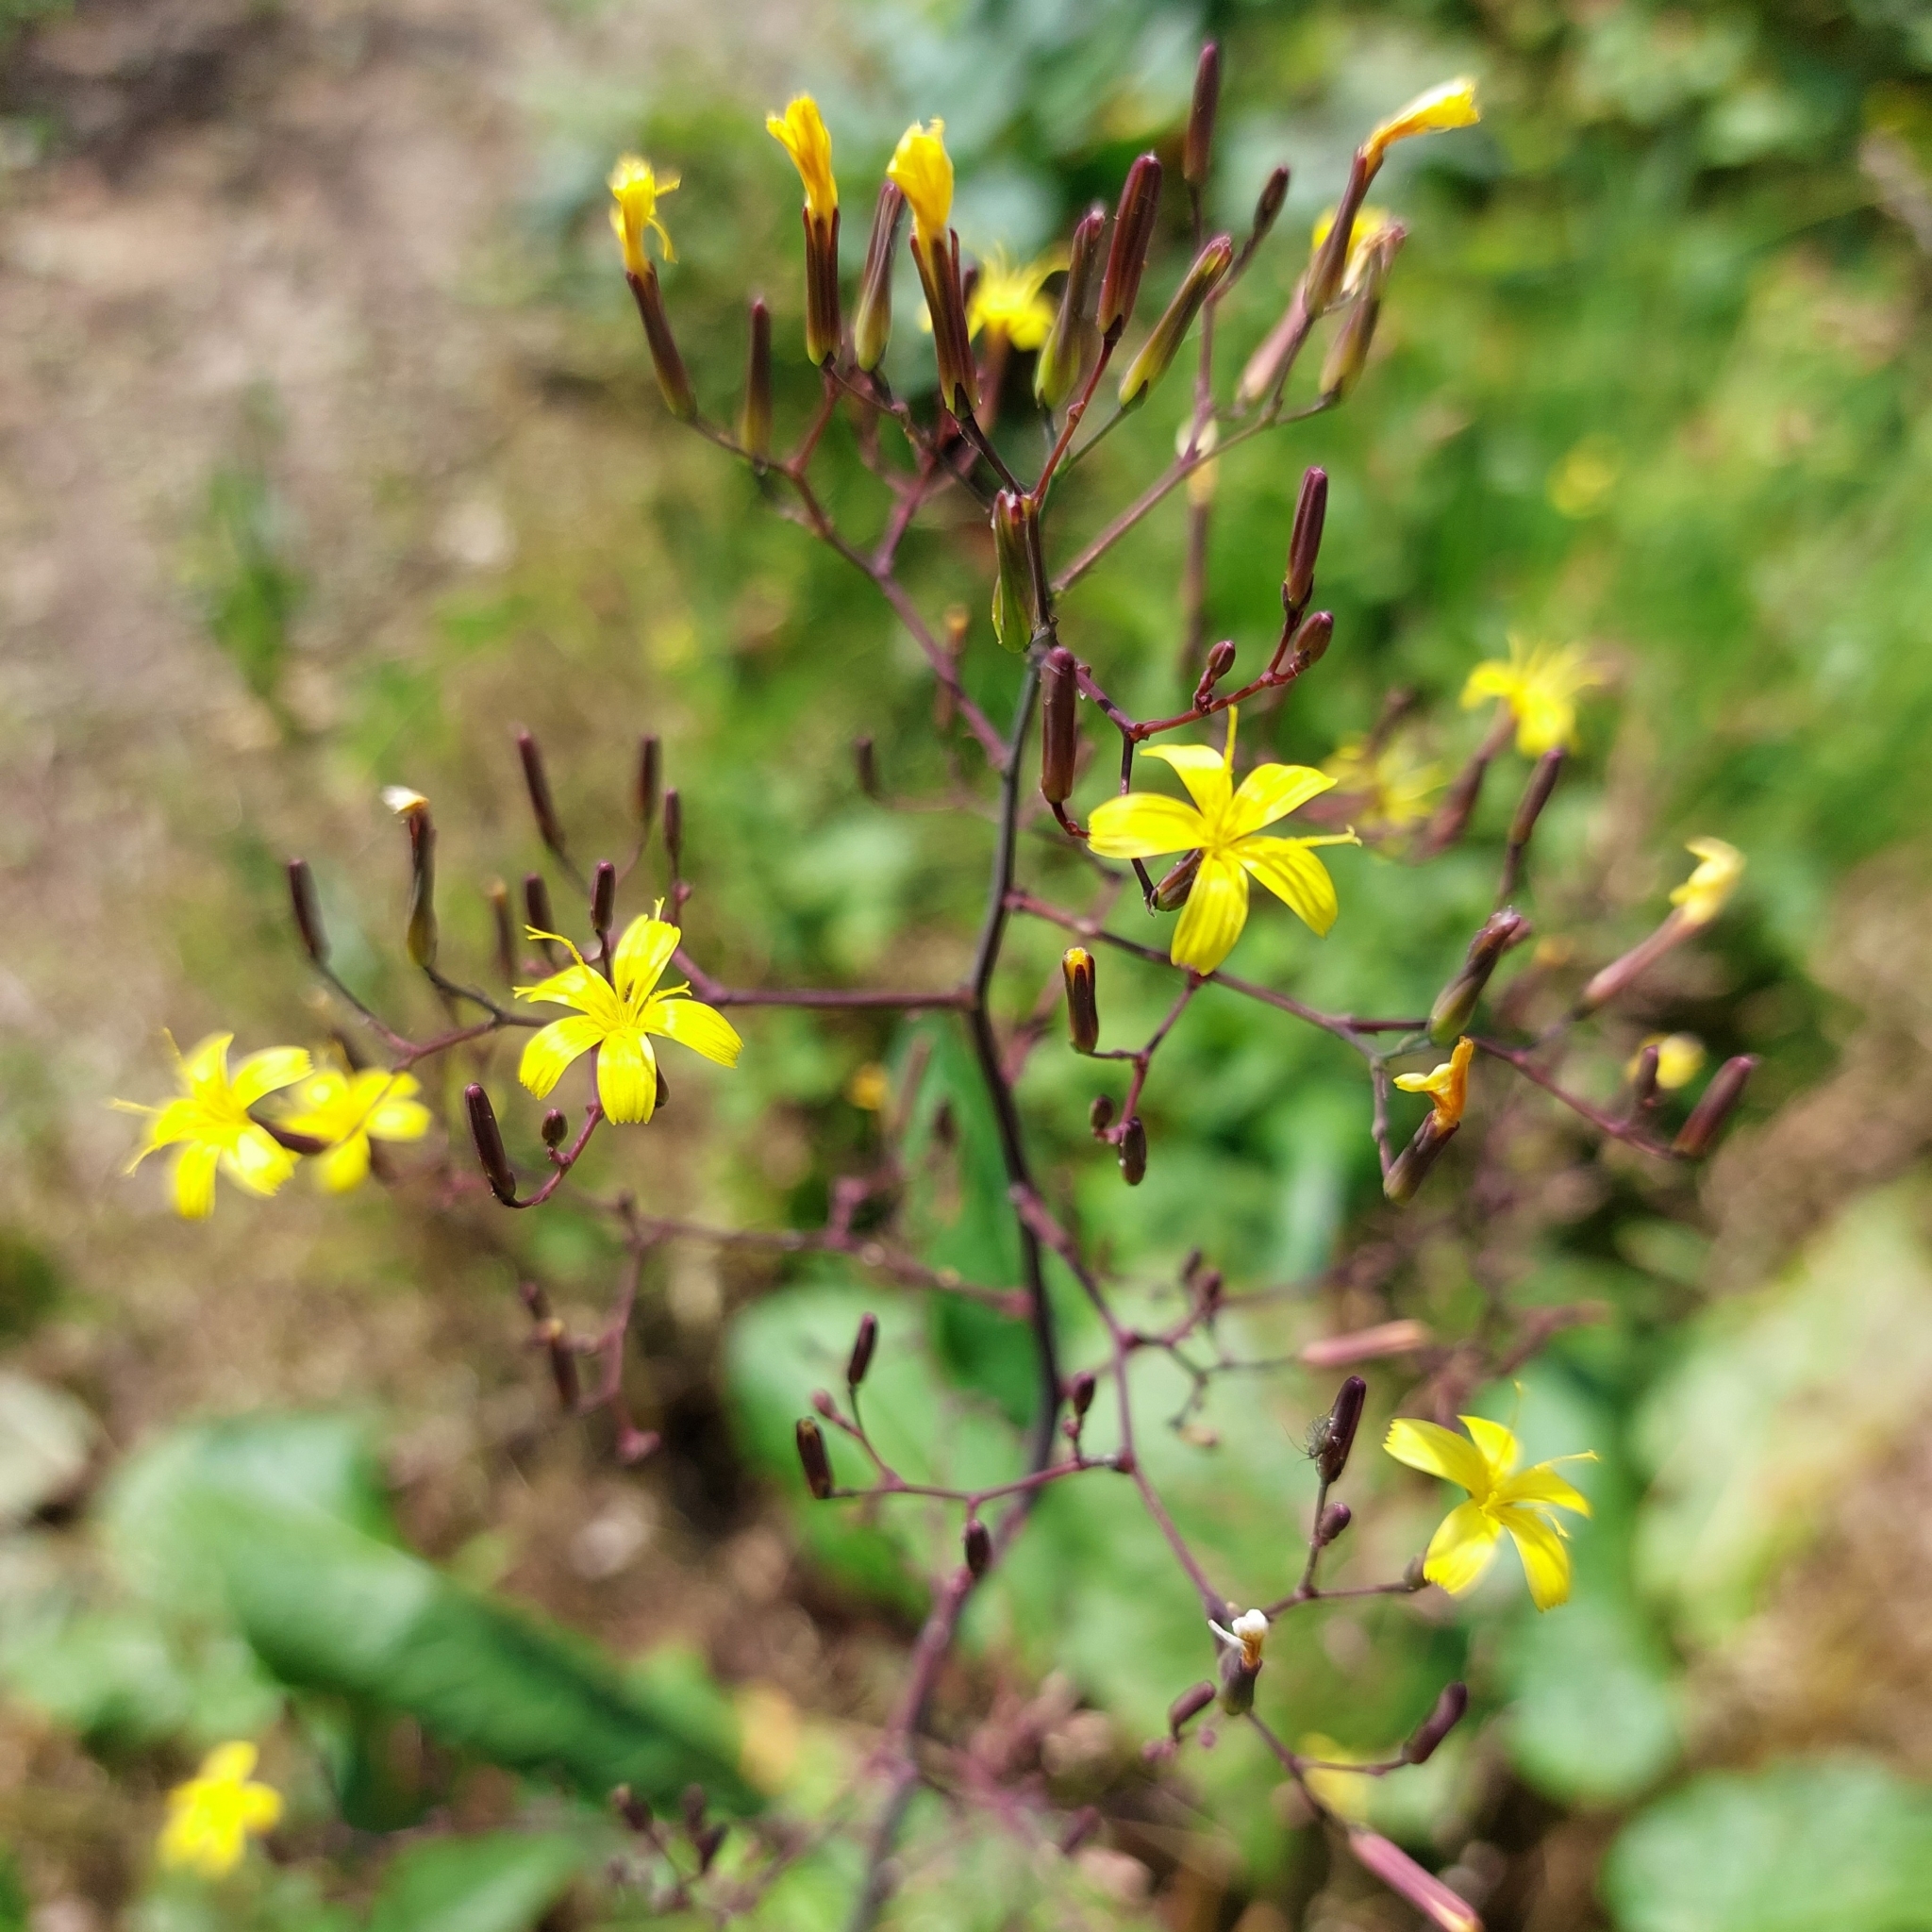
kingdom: Plantae
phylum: Tracheophyta
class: Magnoliopsida
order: Asterales
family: Asteraceae
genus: Mycelis
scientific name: Mycelis muralis
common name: Wall lettuce
